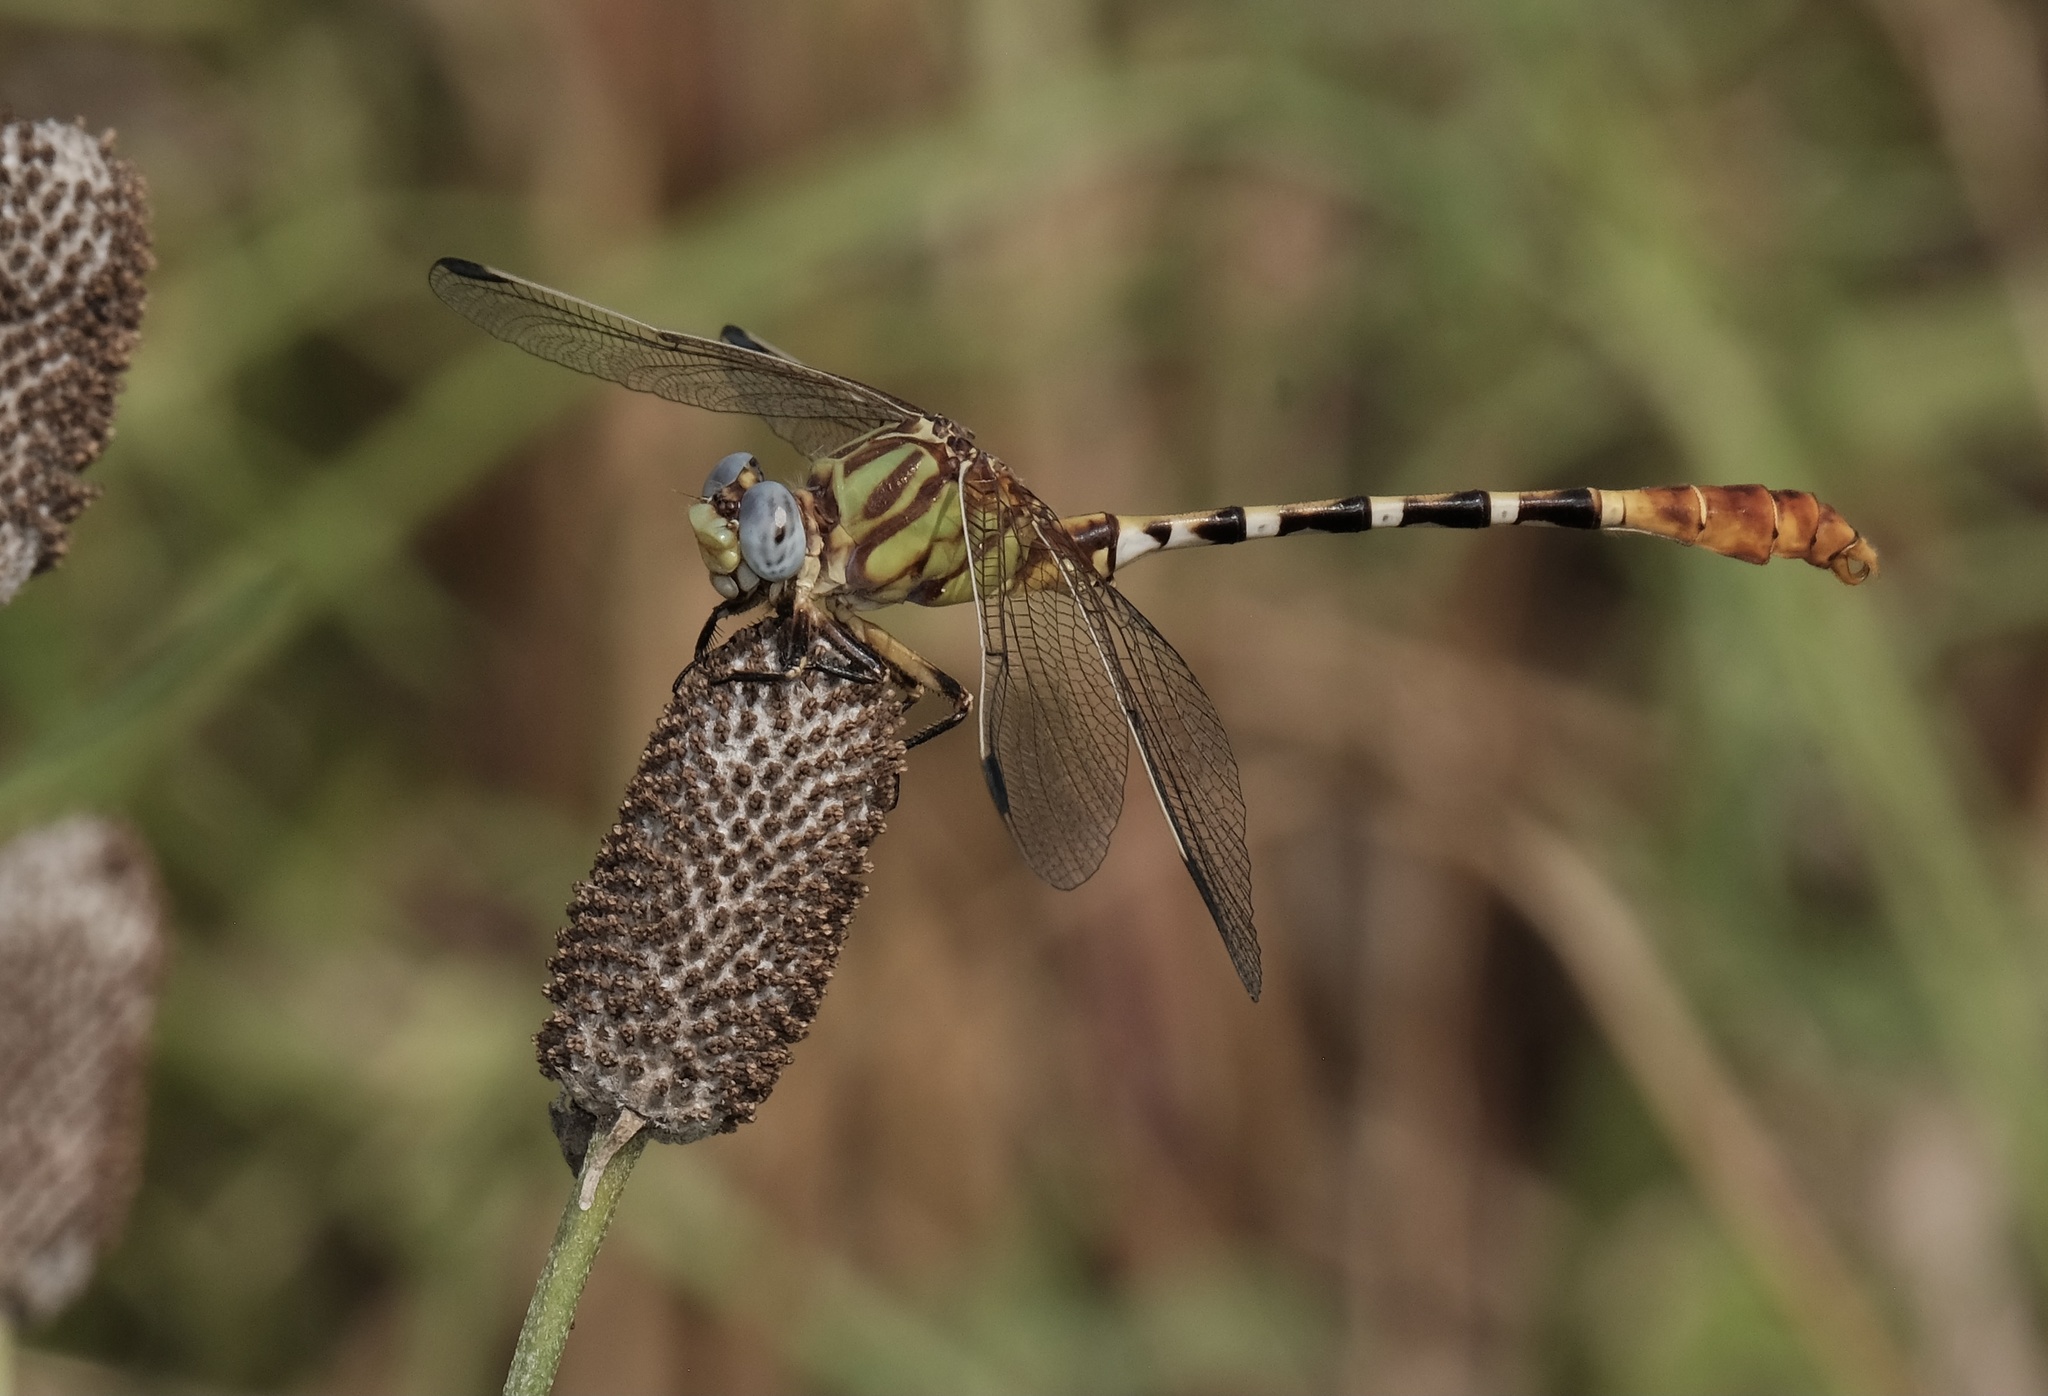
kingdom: Animalia
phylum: Arthropoda
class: Insecta
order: Odonata
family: Gomphidae
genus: Erpetogomphus
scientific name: Erpetogomphus designatus
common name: Eastern ringtail
